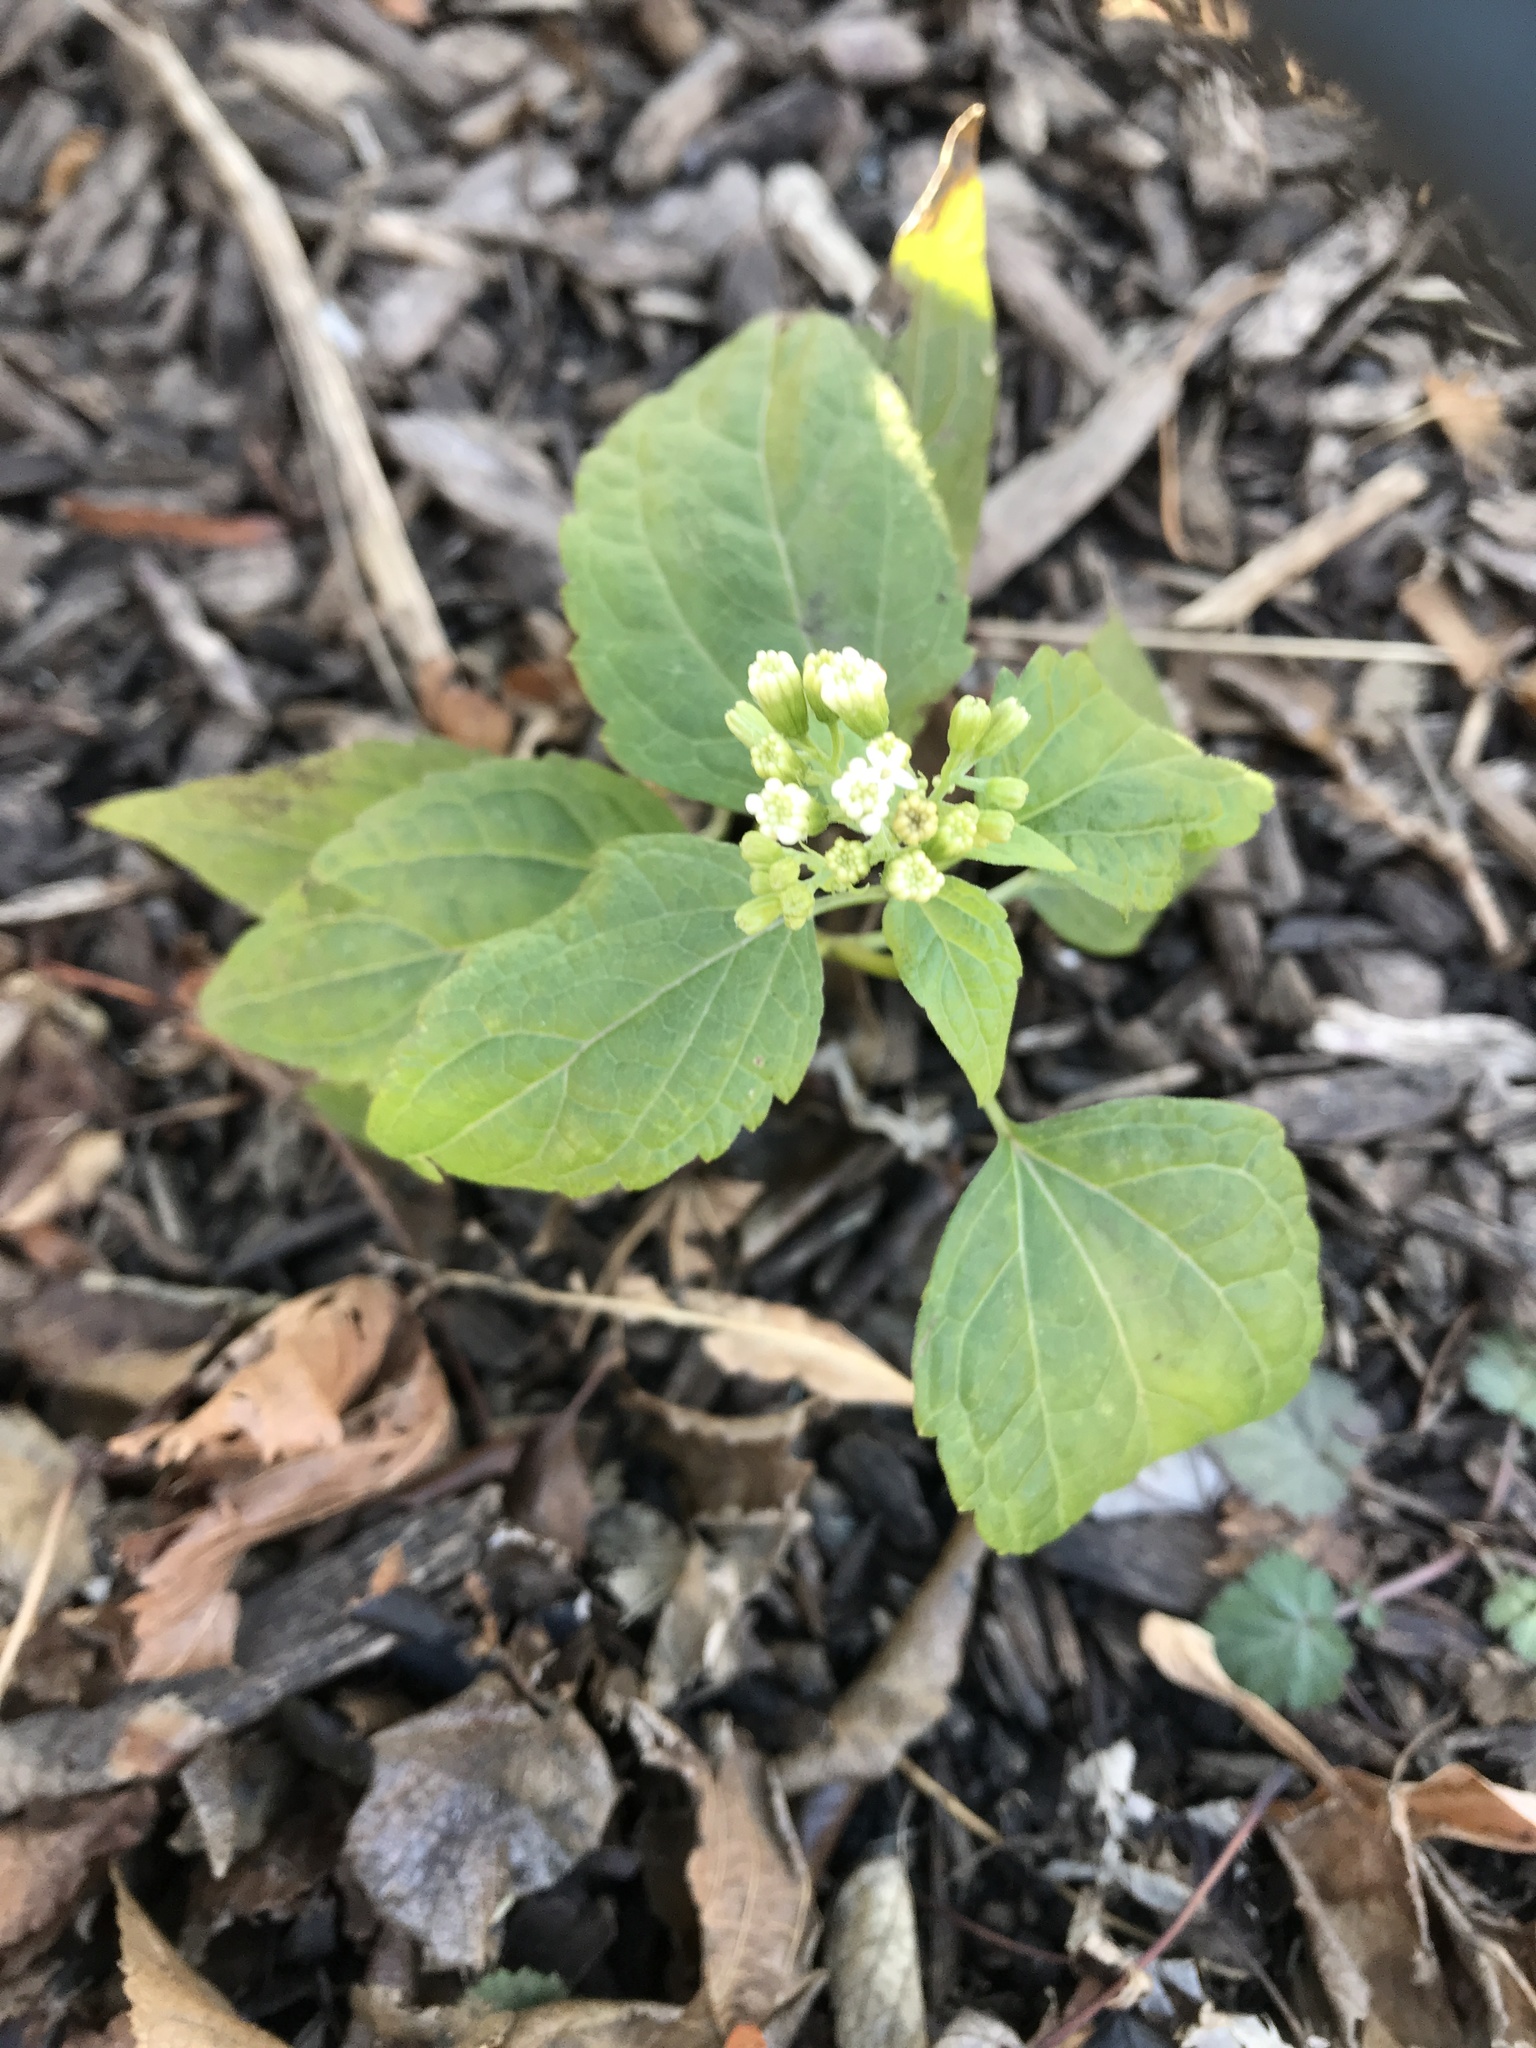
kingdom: Plantae
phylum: Tracheophyta
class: Magnoliopsida
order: Asterales
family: Asteraceae
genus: Ageratina
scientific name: Ageratina altissima
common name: White snakeroot
